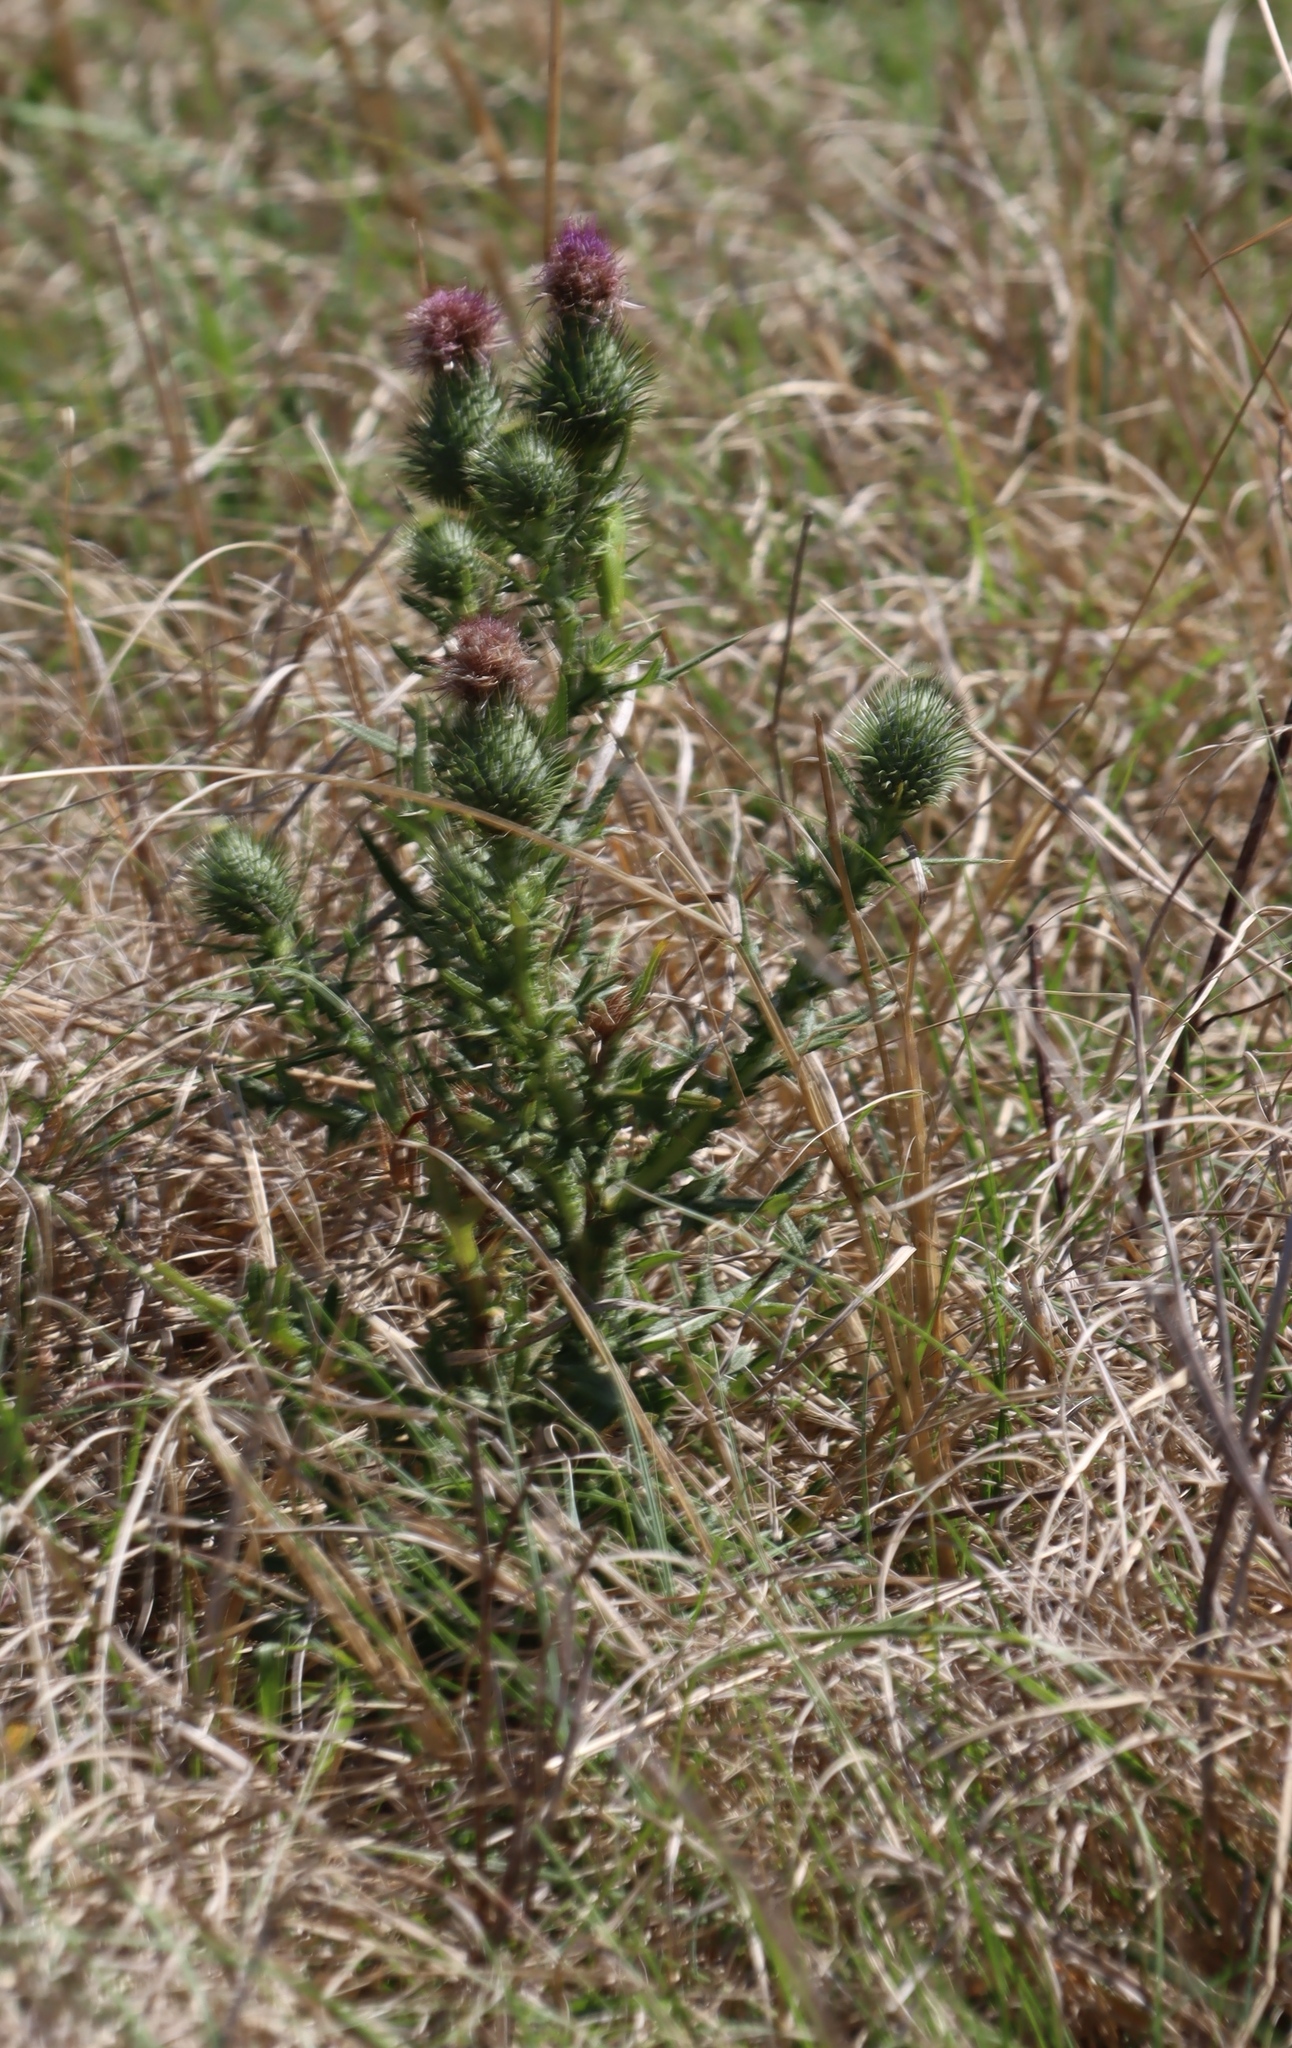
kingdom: Plantae
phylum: Tracheophyta
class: Magnoliopsida
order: Asterales
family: Asteraceae
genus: Cirsium
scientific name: Cirsium vulgare
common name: Bull thistle
